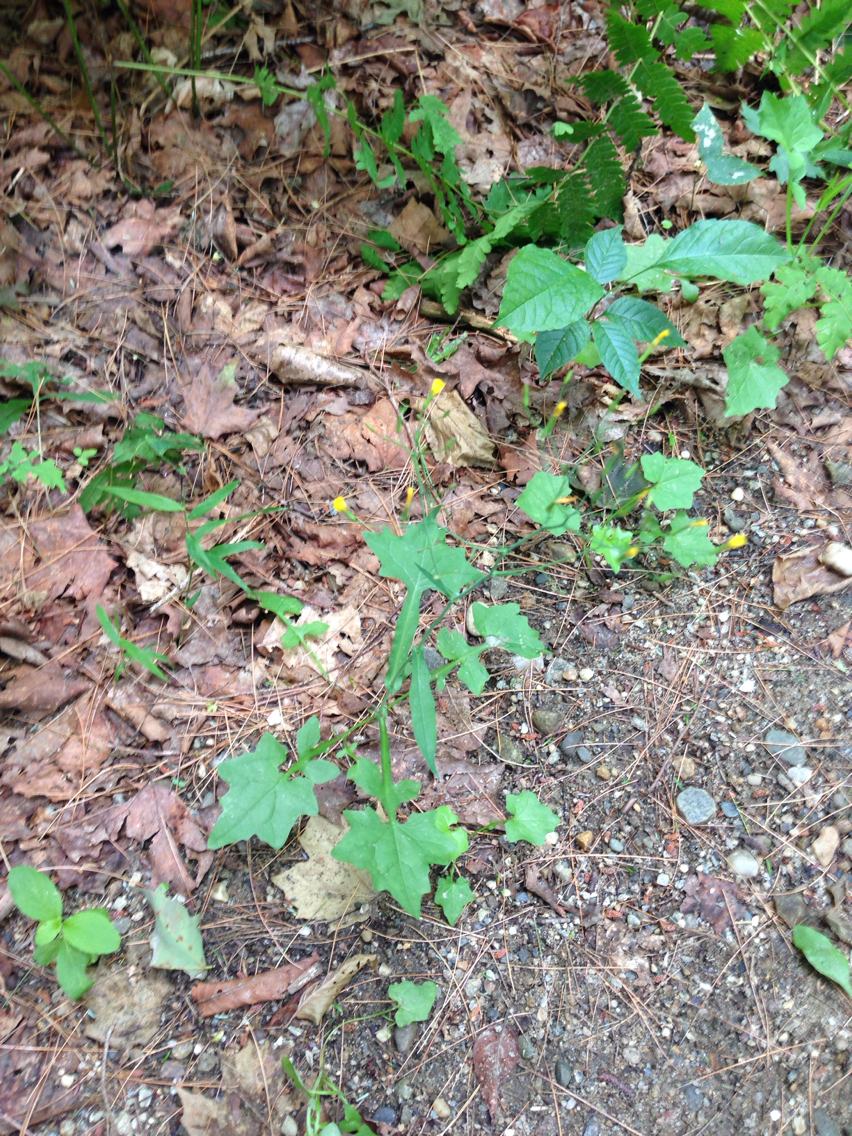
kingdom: Plantae
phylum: Tracheophyta
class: Magnoliopsida
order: Asterales
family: Asteraceae
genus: Mycelis
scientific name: Mycelis muralis
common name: Wall lettuce
